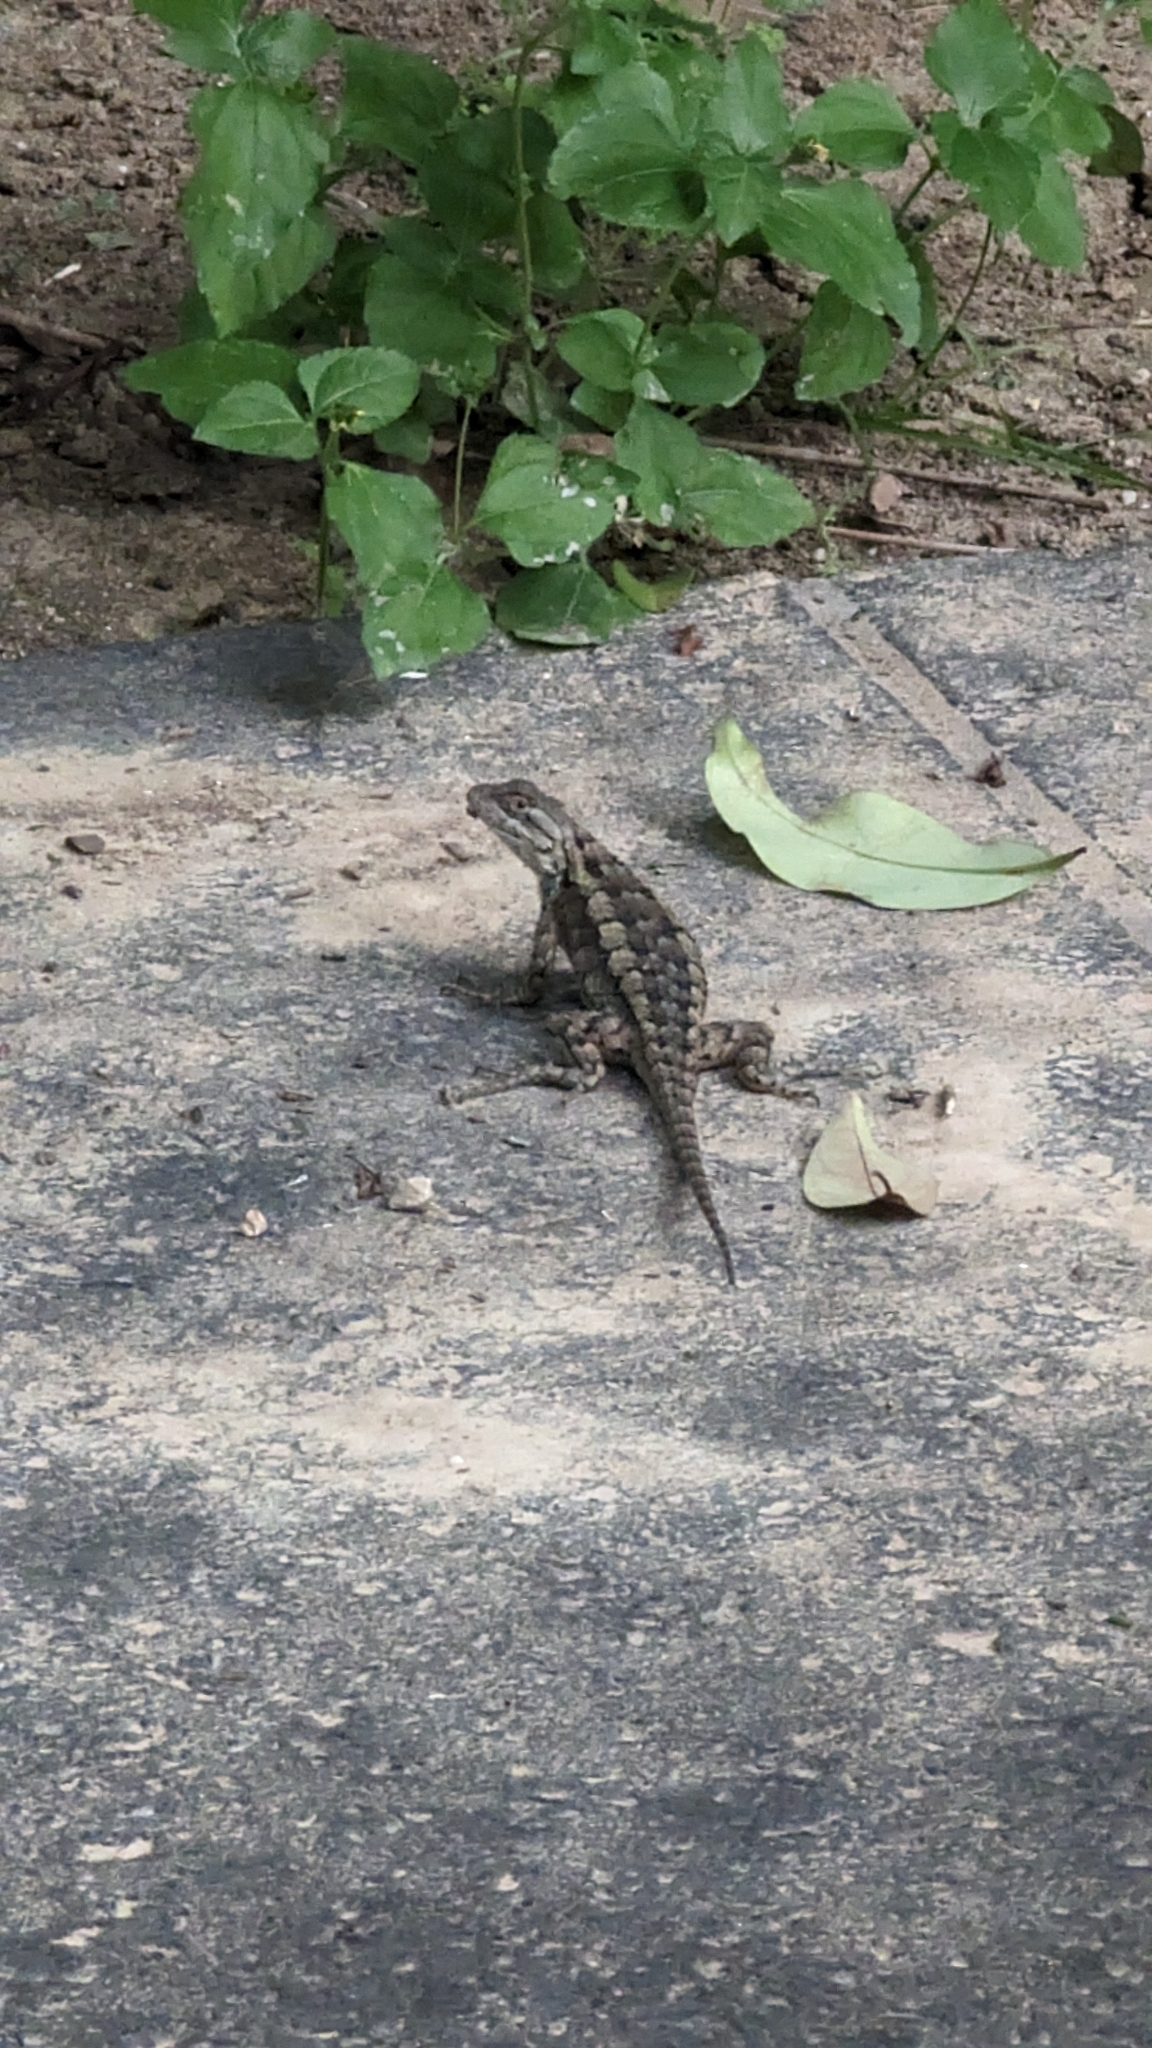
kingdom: Animalia
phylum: Chordata
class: Squamata
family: Phrynosomatidae
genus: Sceloporus
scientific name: Sceloporus olivaceus
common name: Texas spiny lizard
